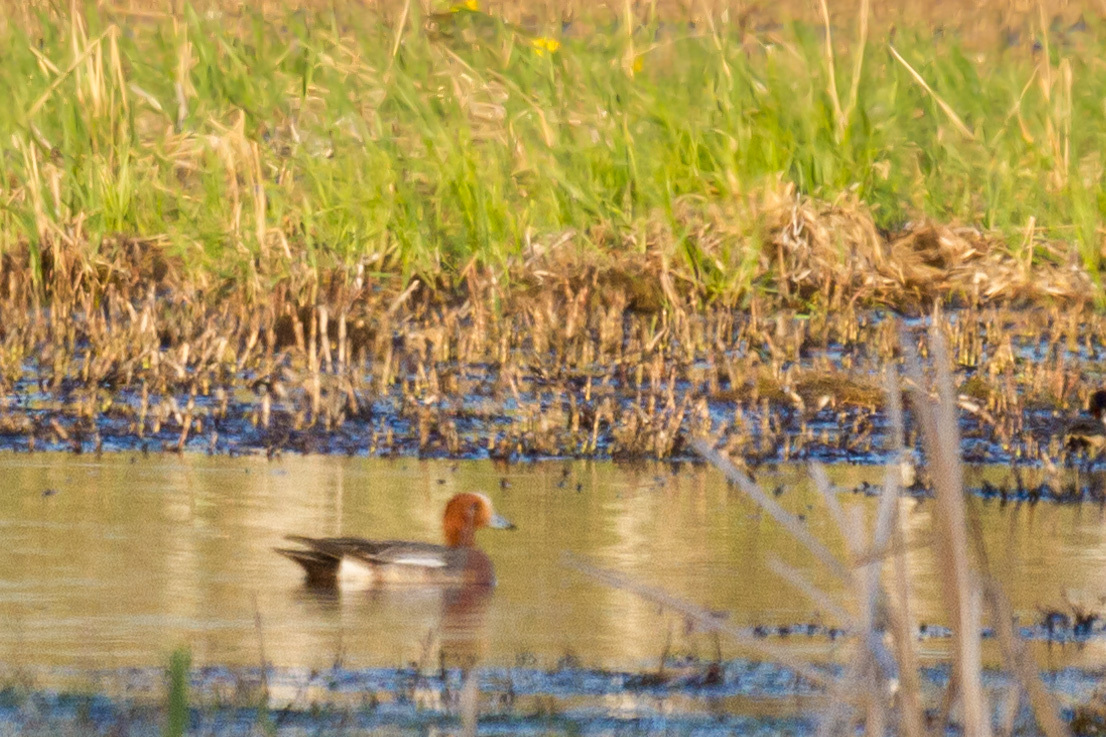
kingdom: Animalia
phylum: Chordata
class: Aves
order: Anseriformes
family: Anatidae
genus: Mareca
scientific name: Mareca penelope
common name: Eurasian wigeon
